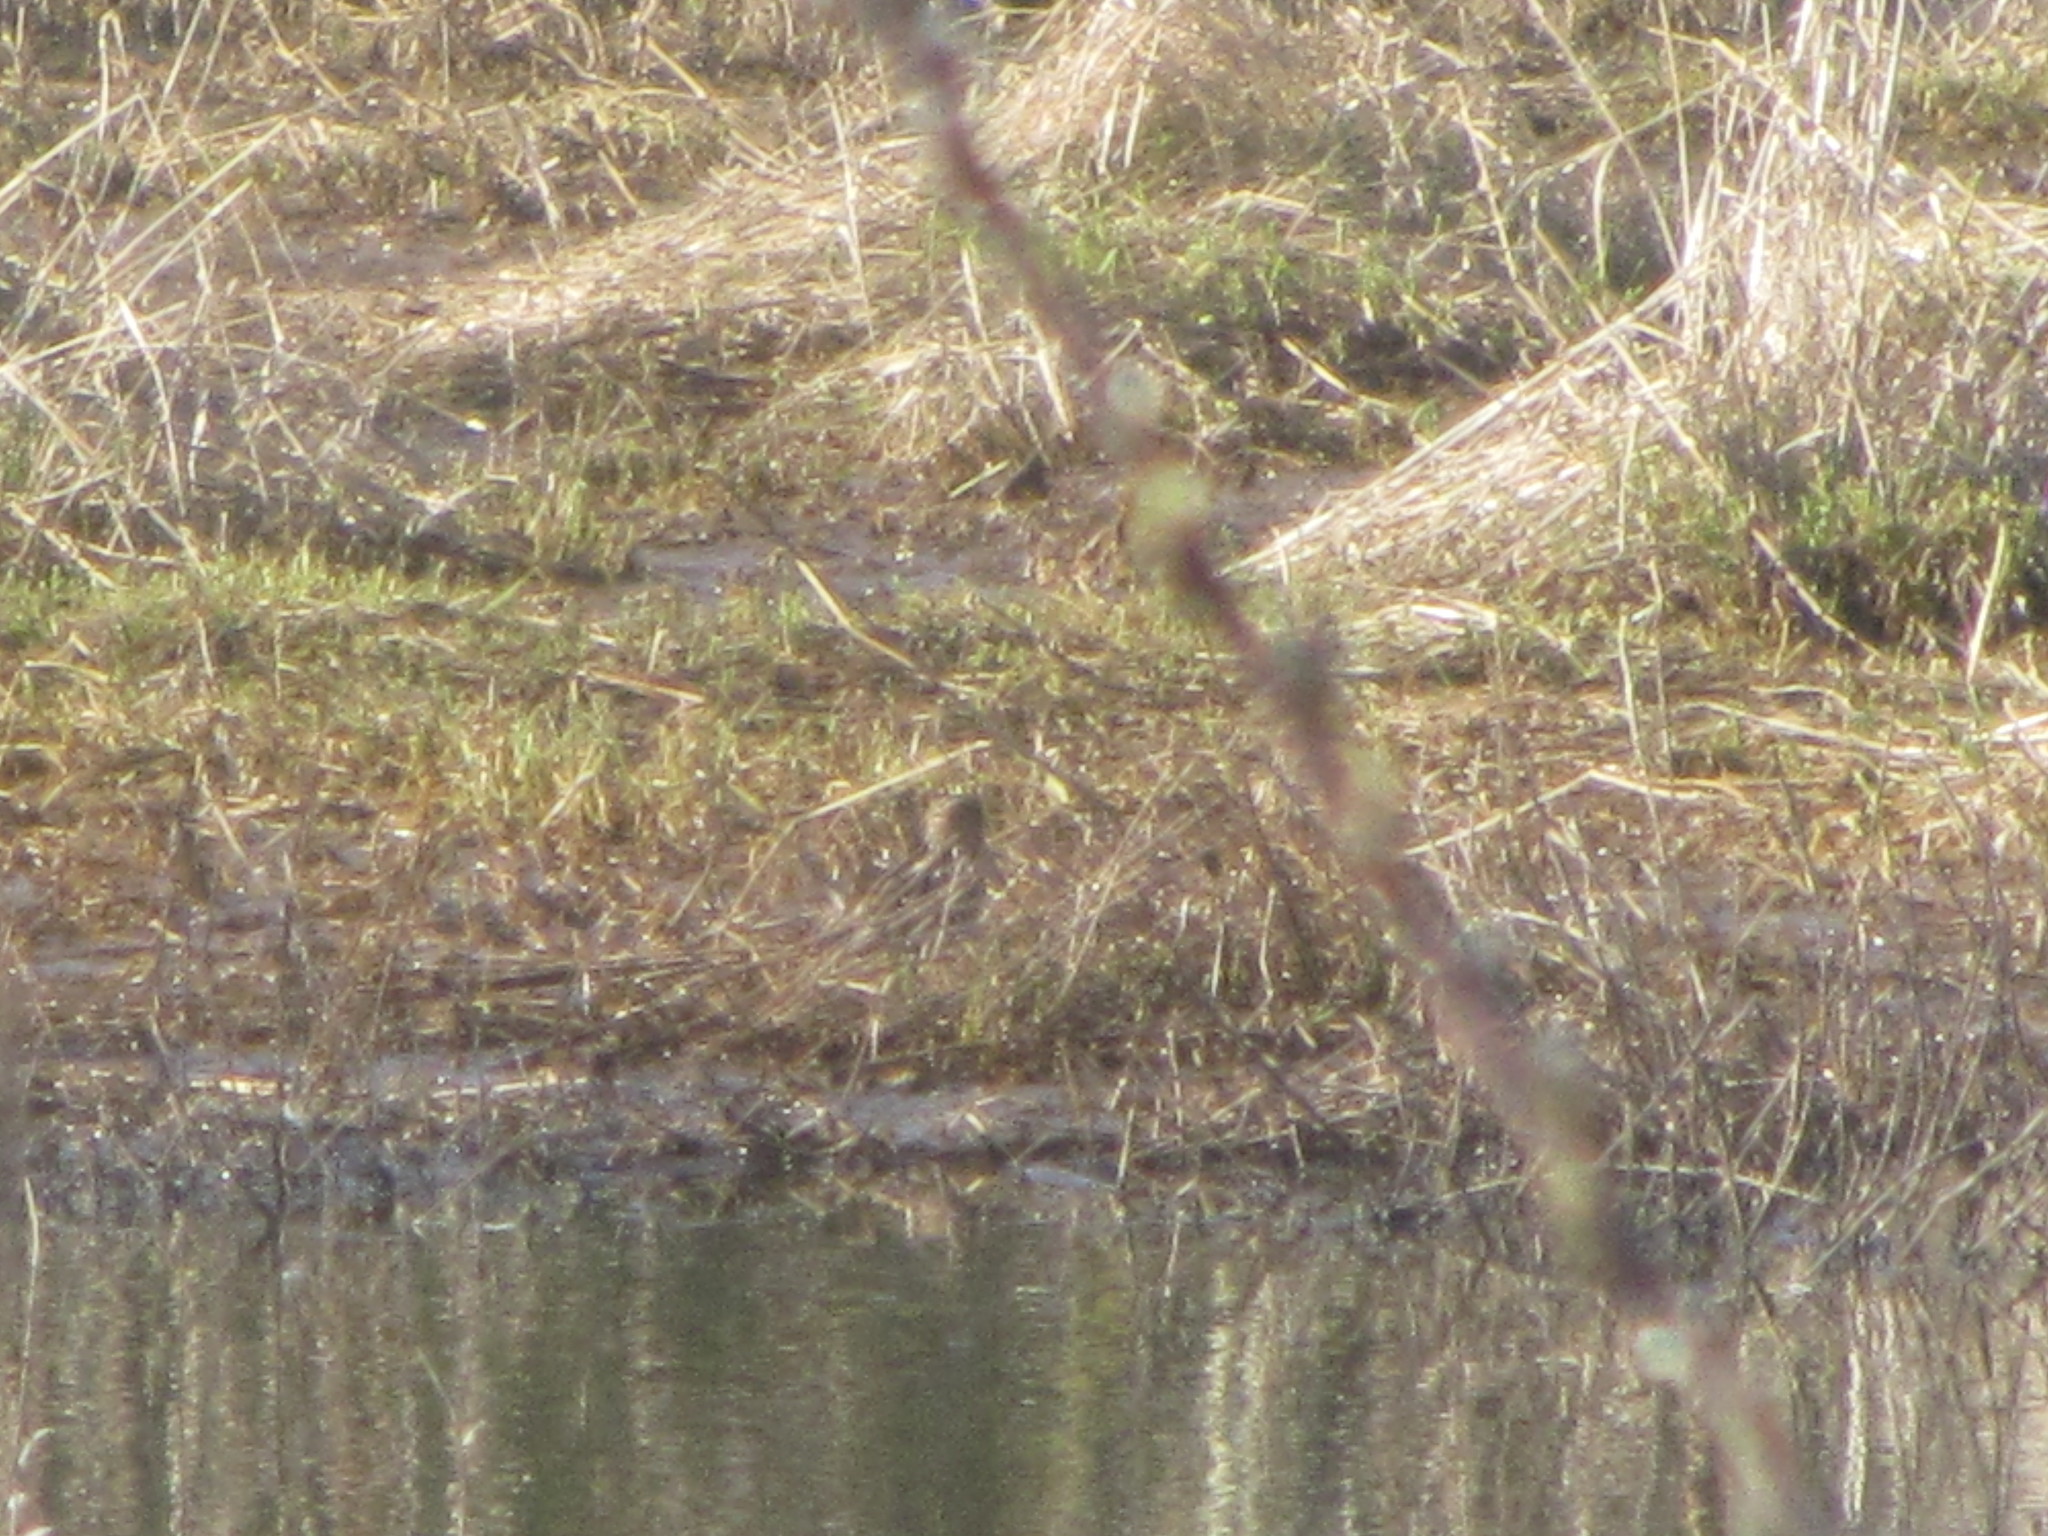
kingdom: Animalia
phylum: Chordata
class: Aves
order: Charadriiformes
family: Scolopacidae
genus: Gallinago
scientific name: Gallinago delicata
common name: Wilson's snipe
